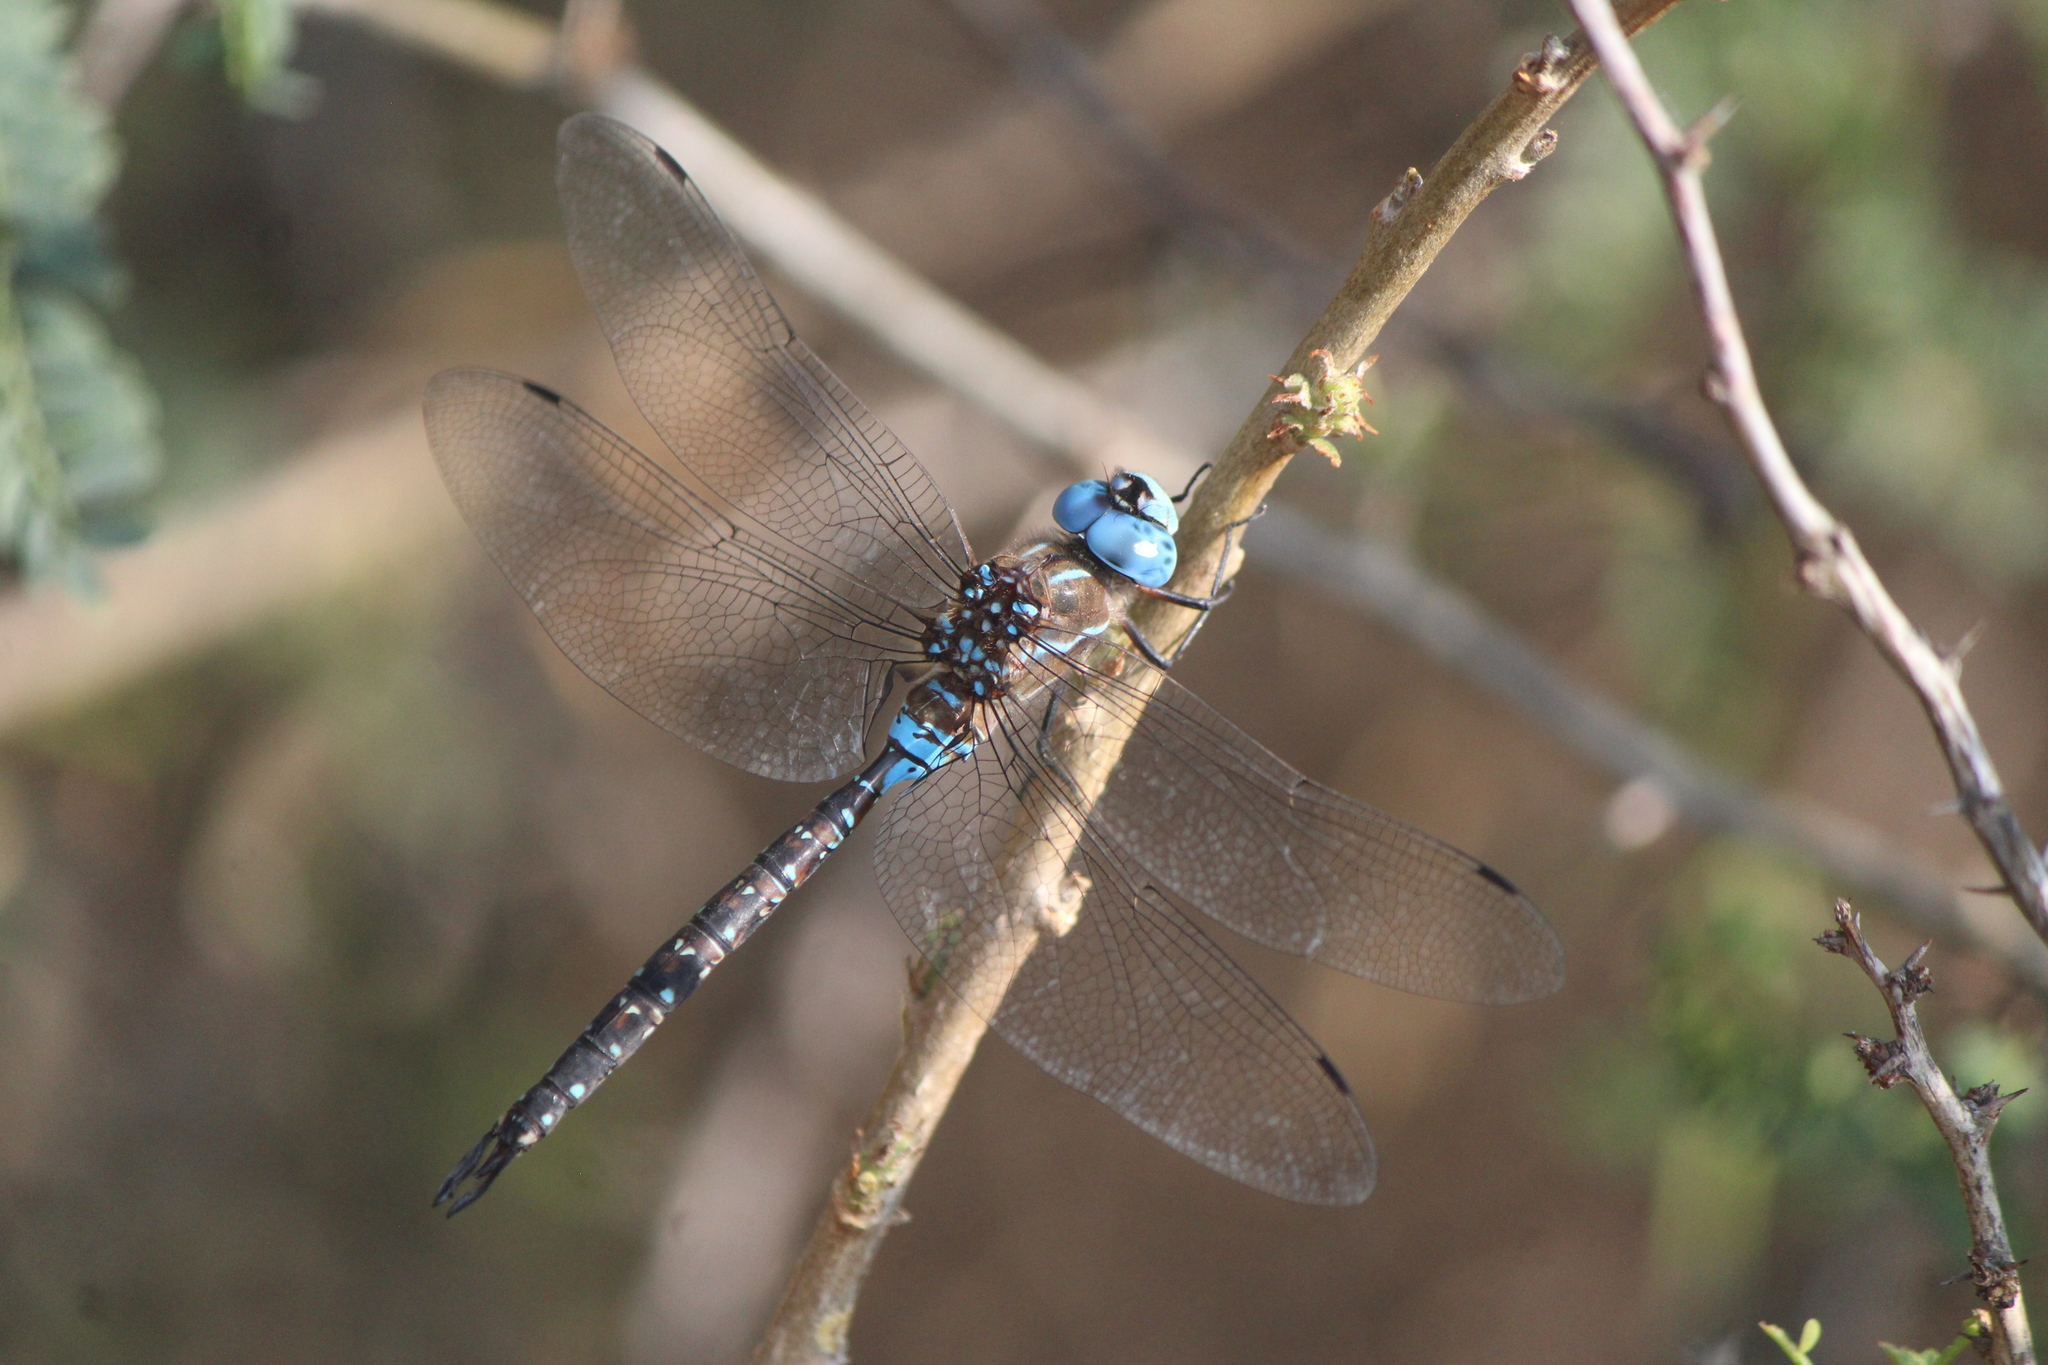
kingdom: Animalia
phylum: Arthropoda
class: Insecta
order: Odonata
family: Aeshnidae
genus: Rhionaeschna
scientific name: Rhionaeschna multicolor
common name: Blue-eyed darner
